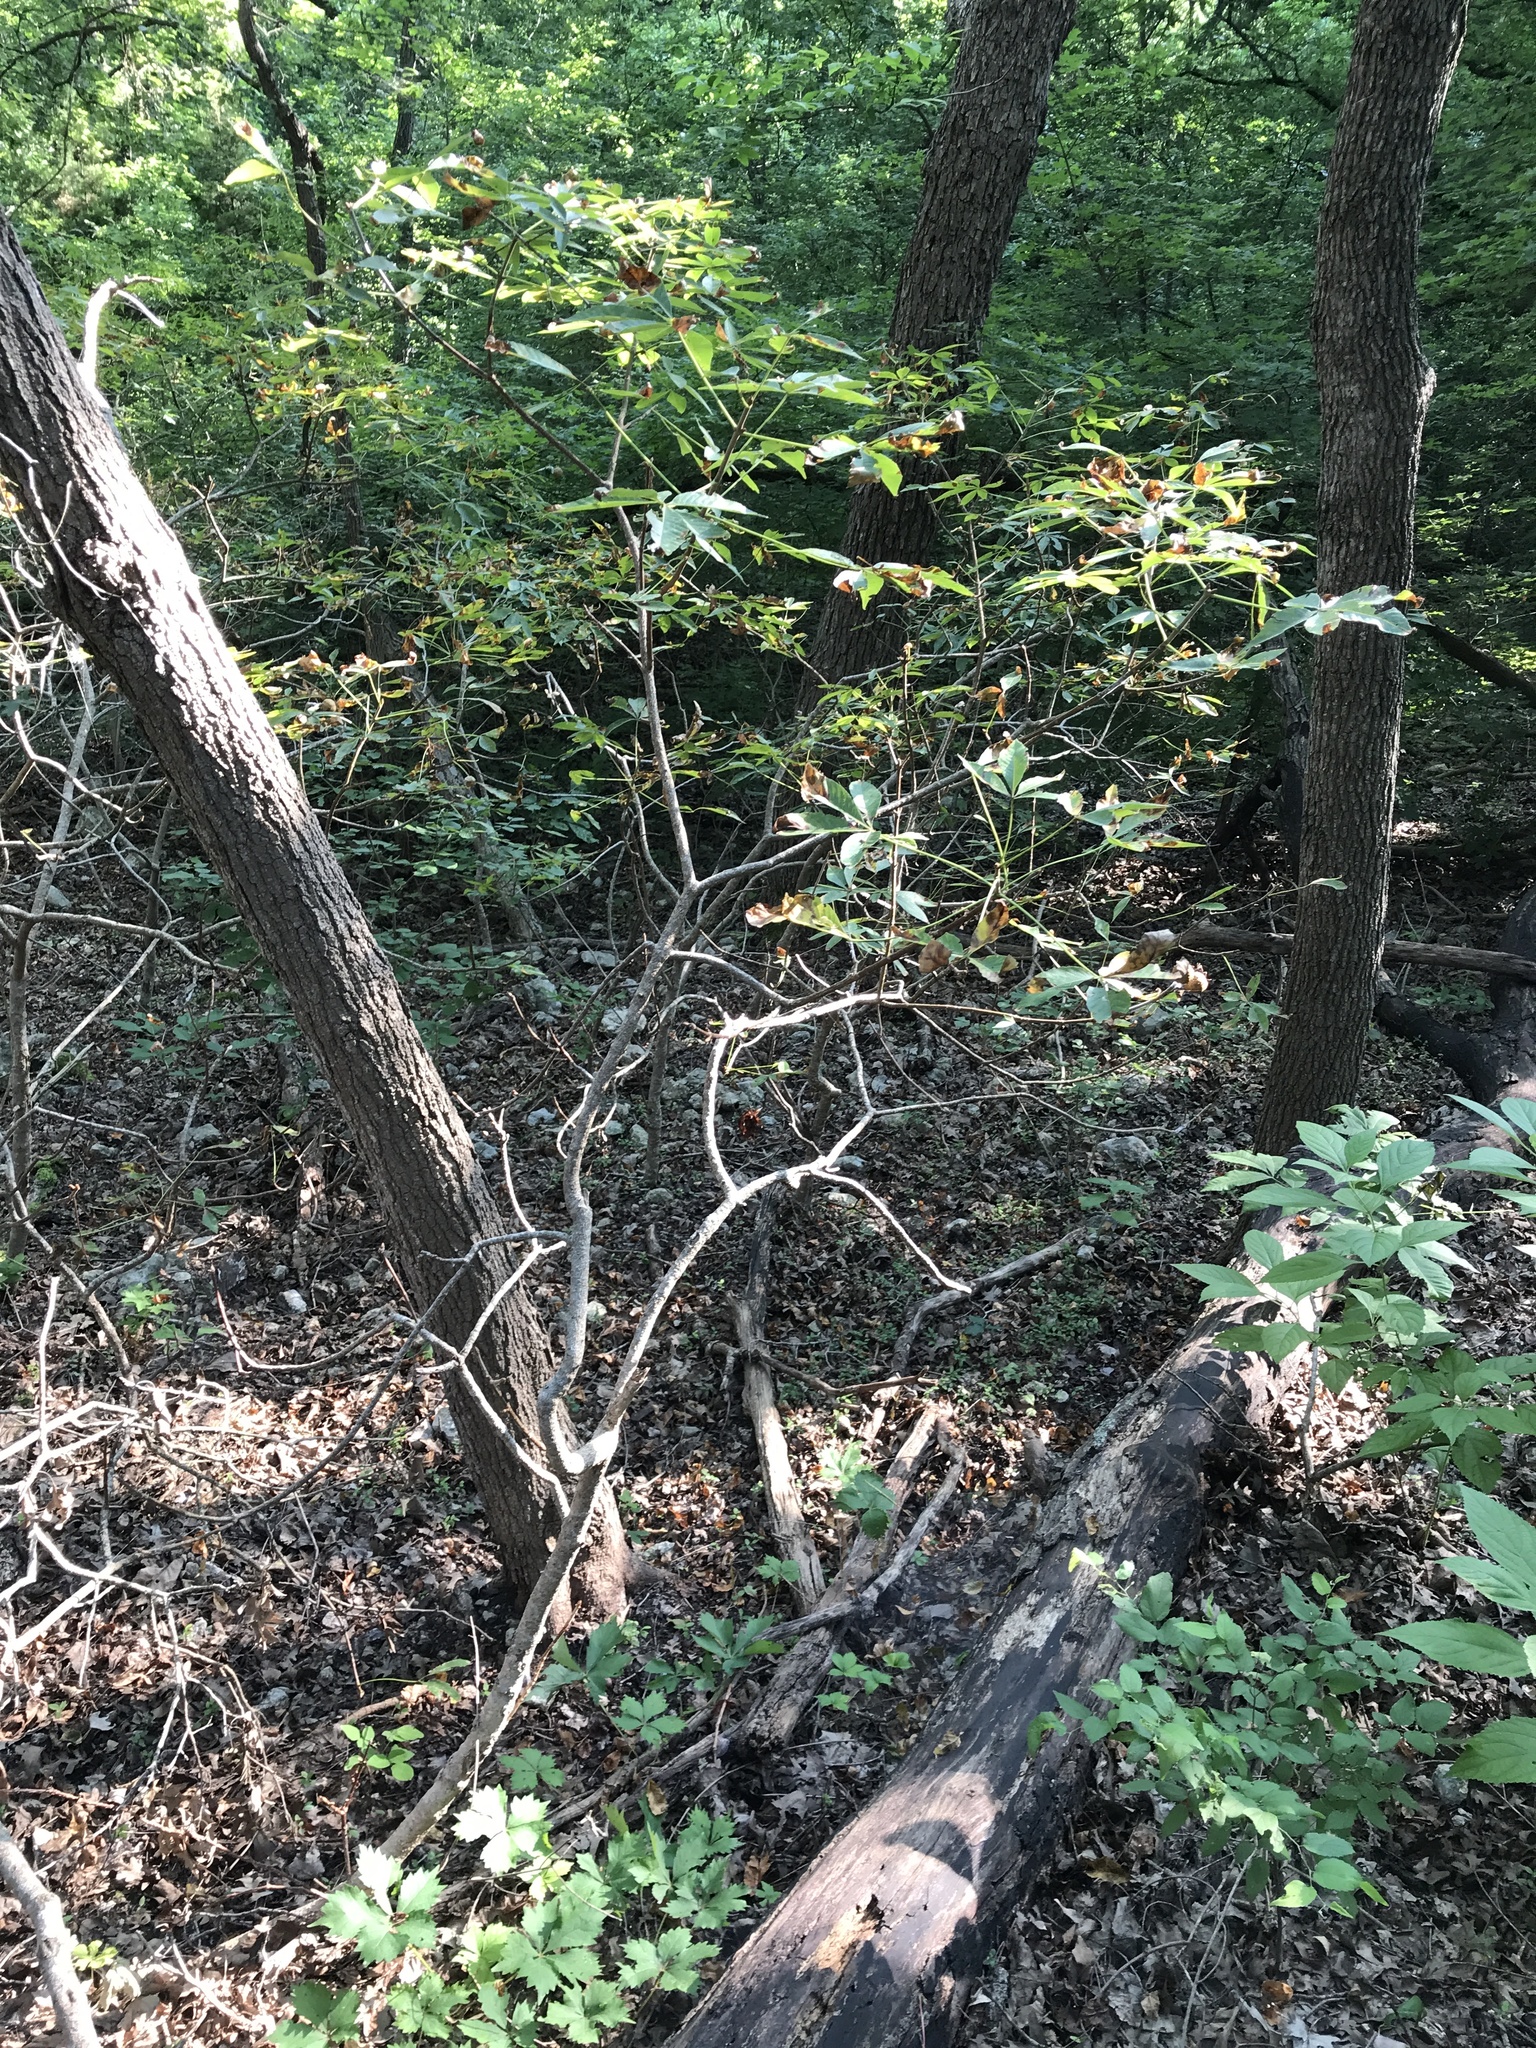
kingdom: Plantae
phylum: Tracheophyta
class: Magnoliopsida
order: Sapindales
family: Sapindaceae
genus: Aesculus
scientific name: Aesculus glabra
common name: Ohio buckeye
